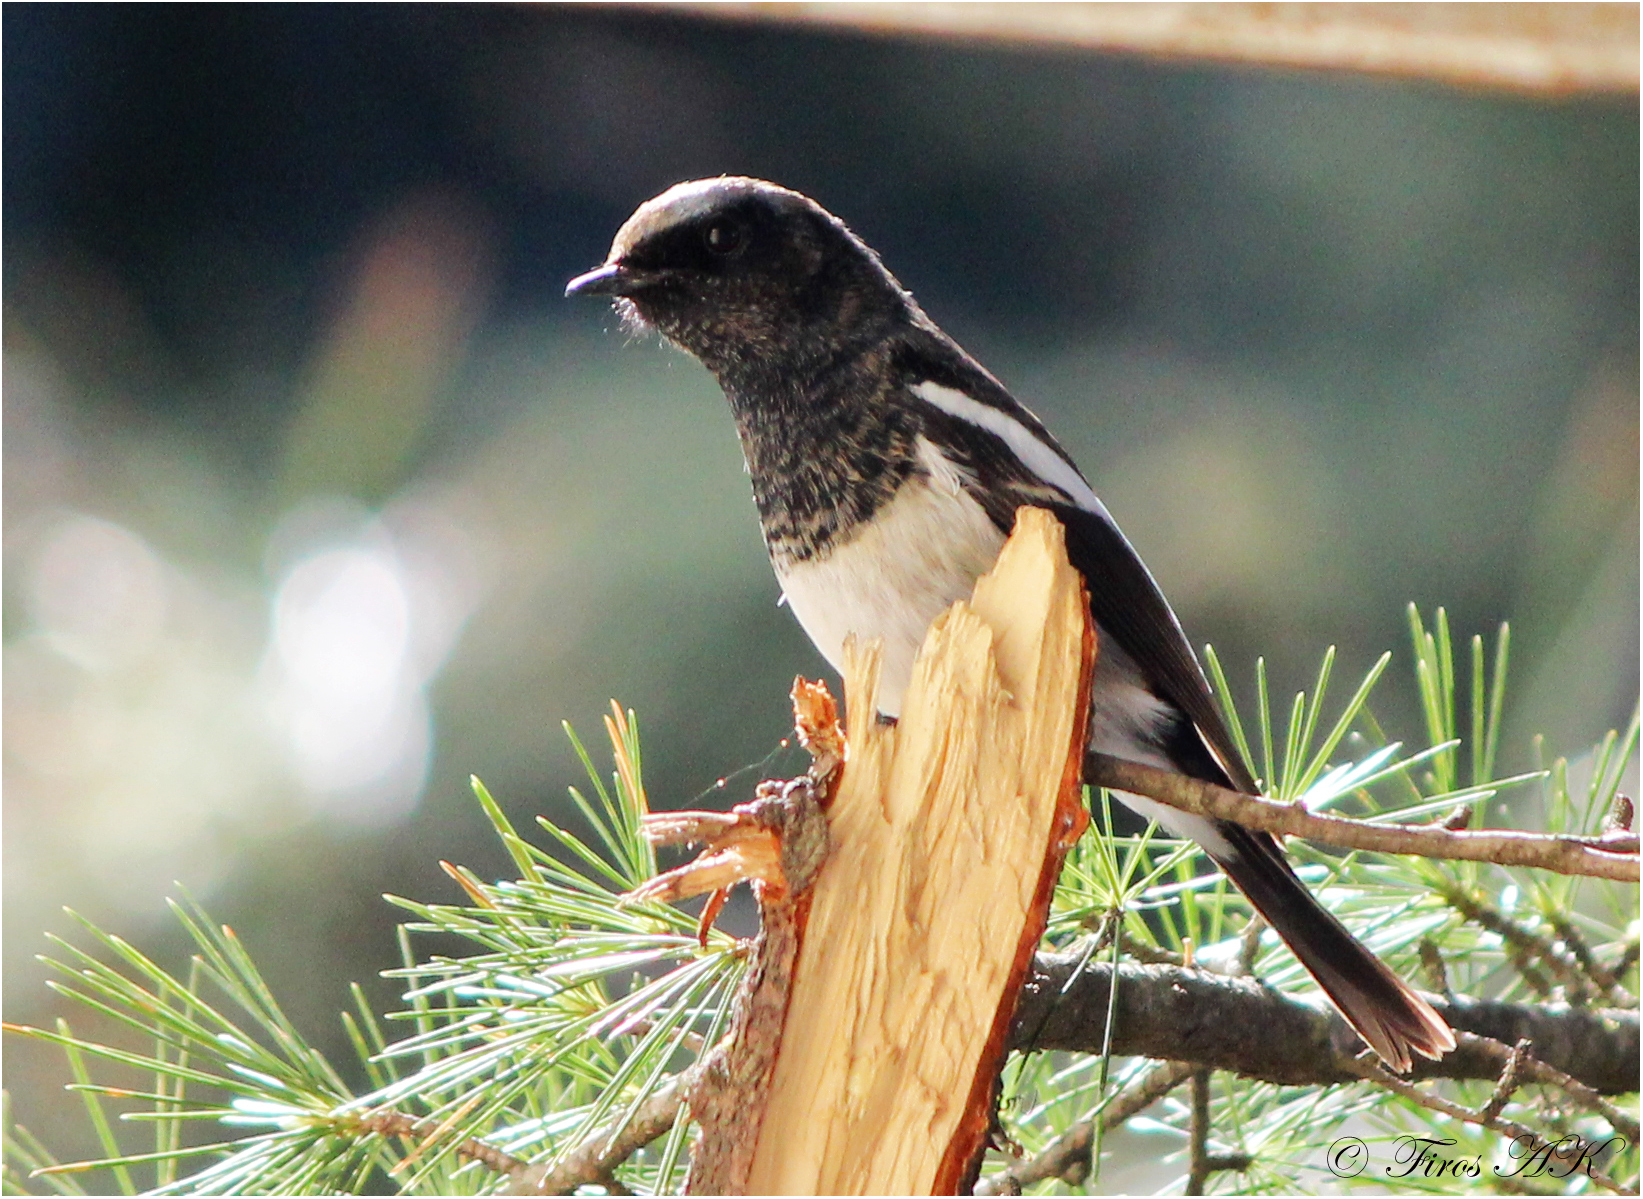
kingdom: Animalia
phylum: Chordata
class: Aves
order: Passeriformes
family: Muscicapidae
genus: Phoenicurus
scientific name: Phoenicurus coeruleocephala
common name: Blue-capped redstart
